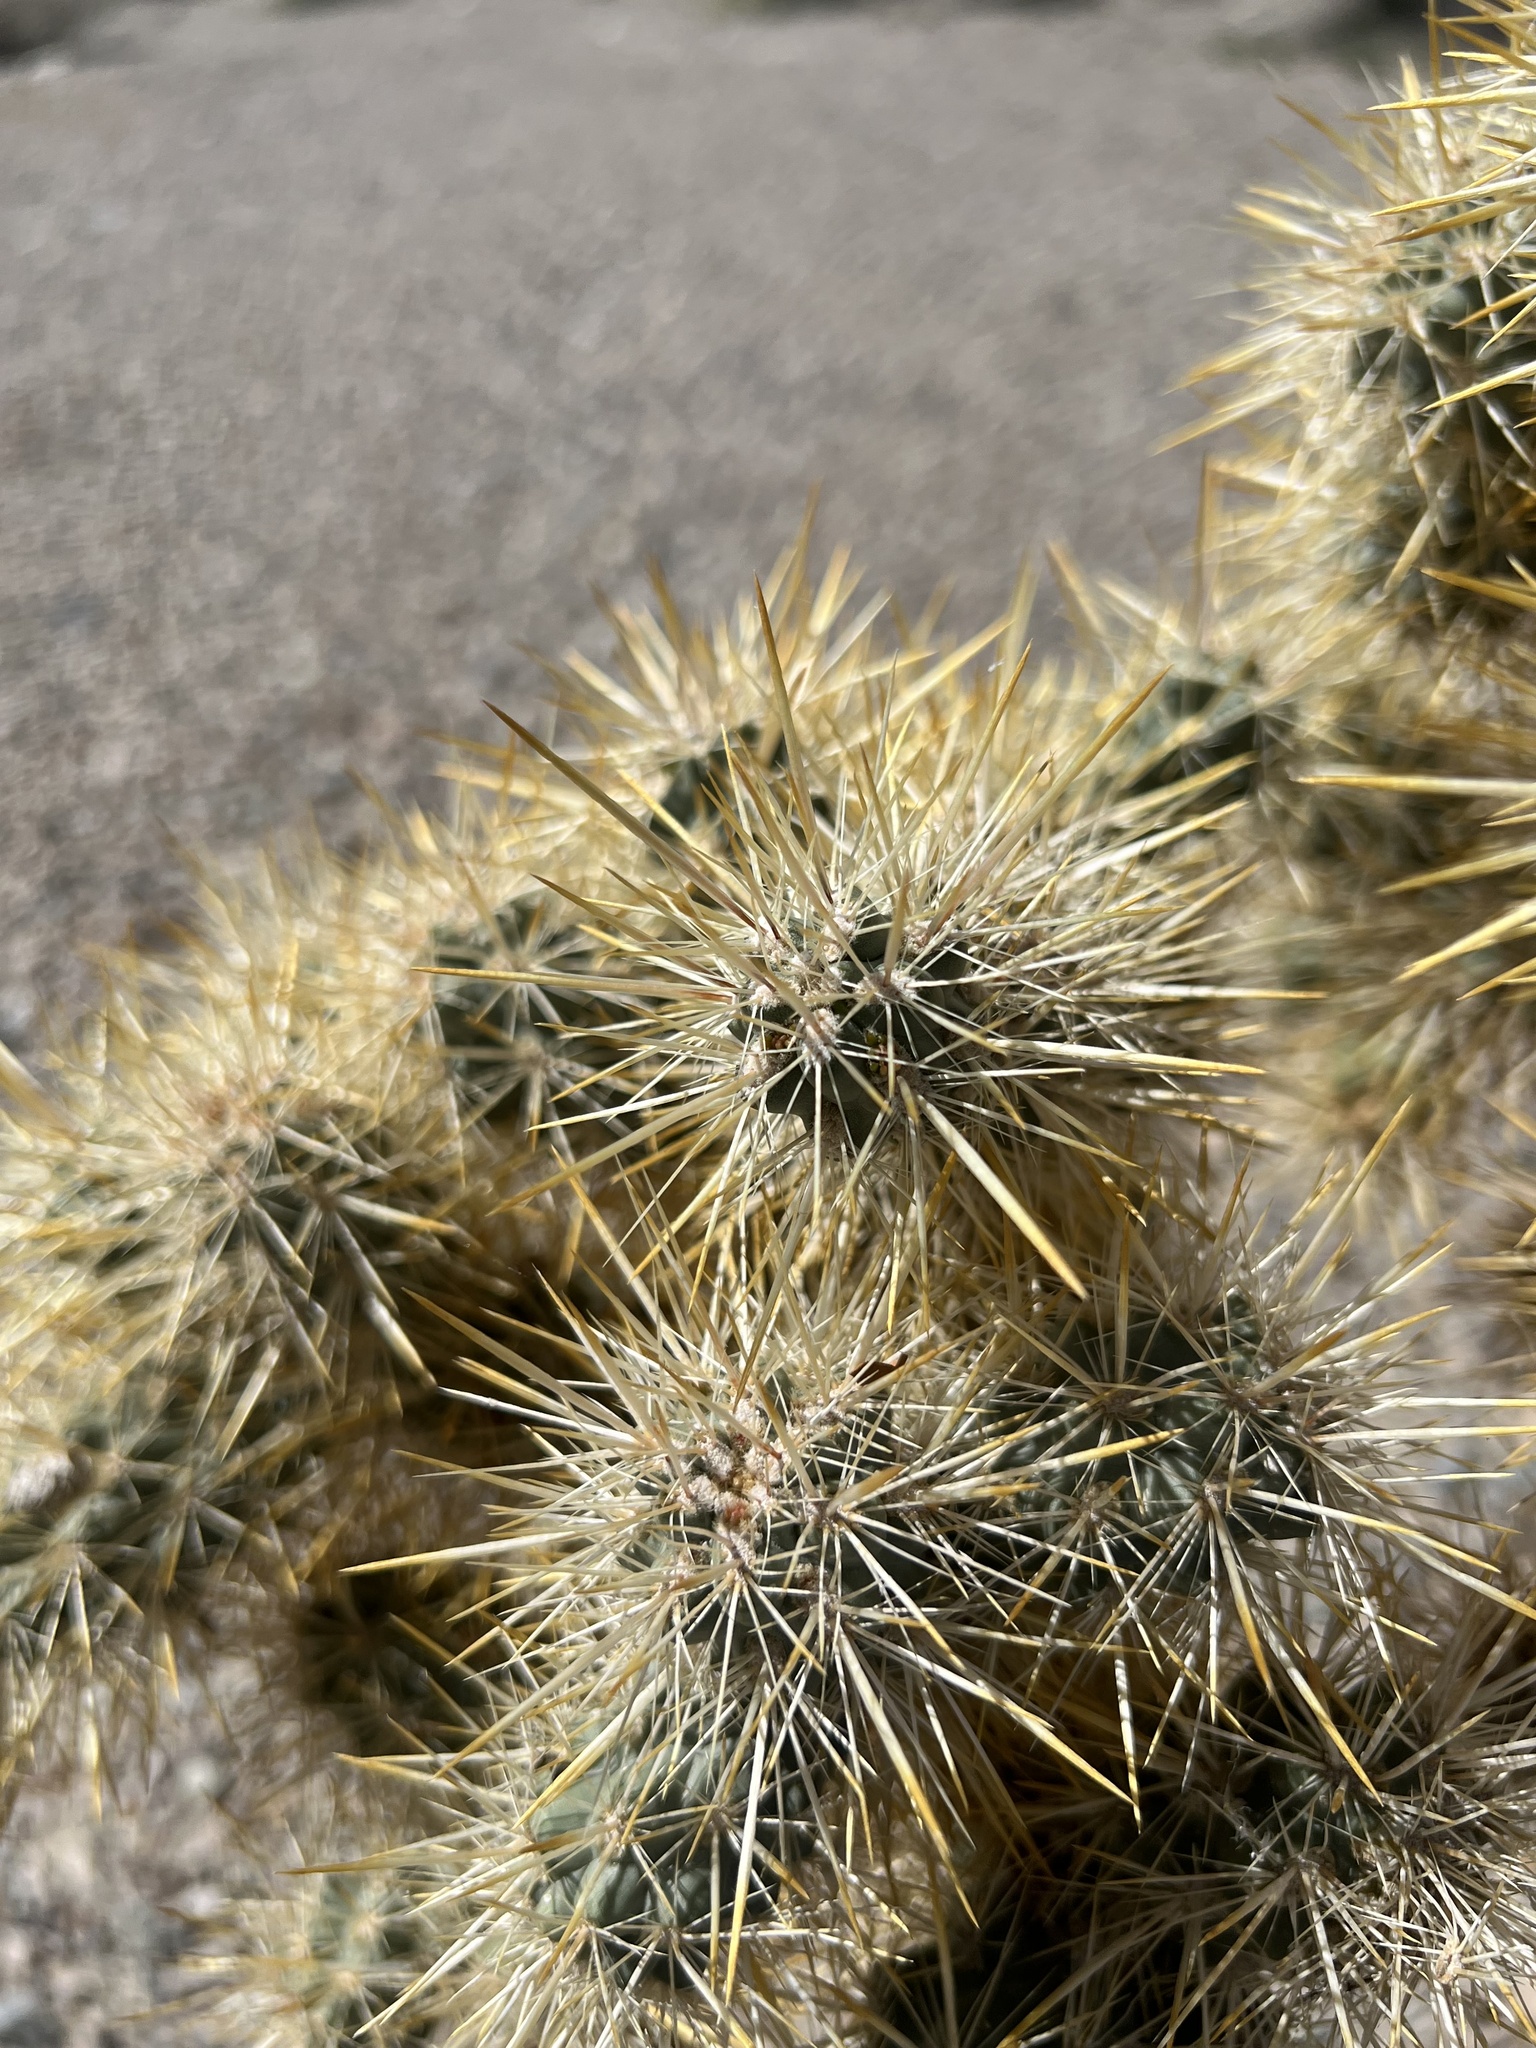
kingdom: Plantae
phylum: Tracheophyta
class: Magnoliopsida
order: Caryophyllales
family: Cactaceae
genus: Cylindropuntia
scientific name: Cylindropuntia echinocarpa
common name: Ground cholla
